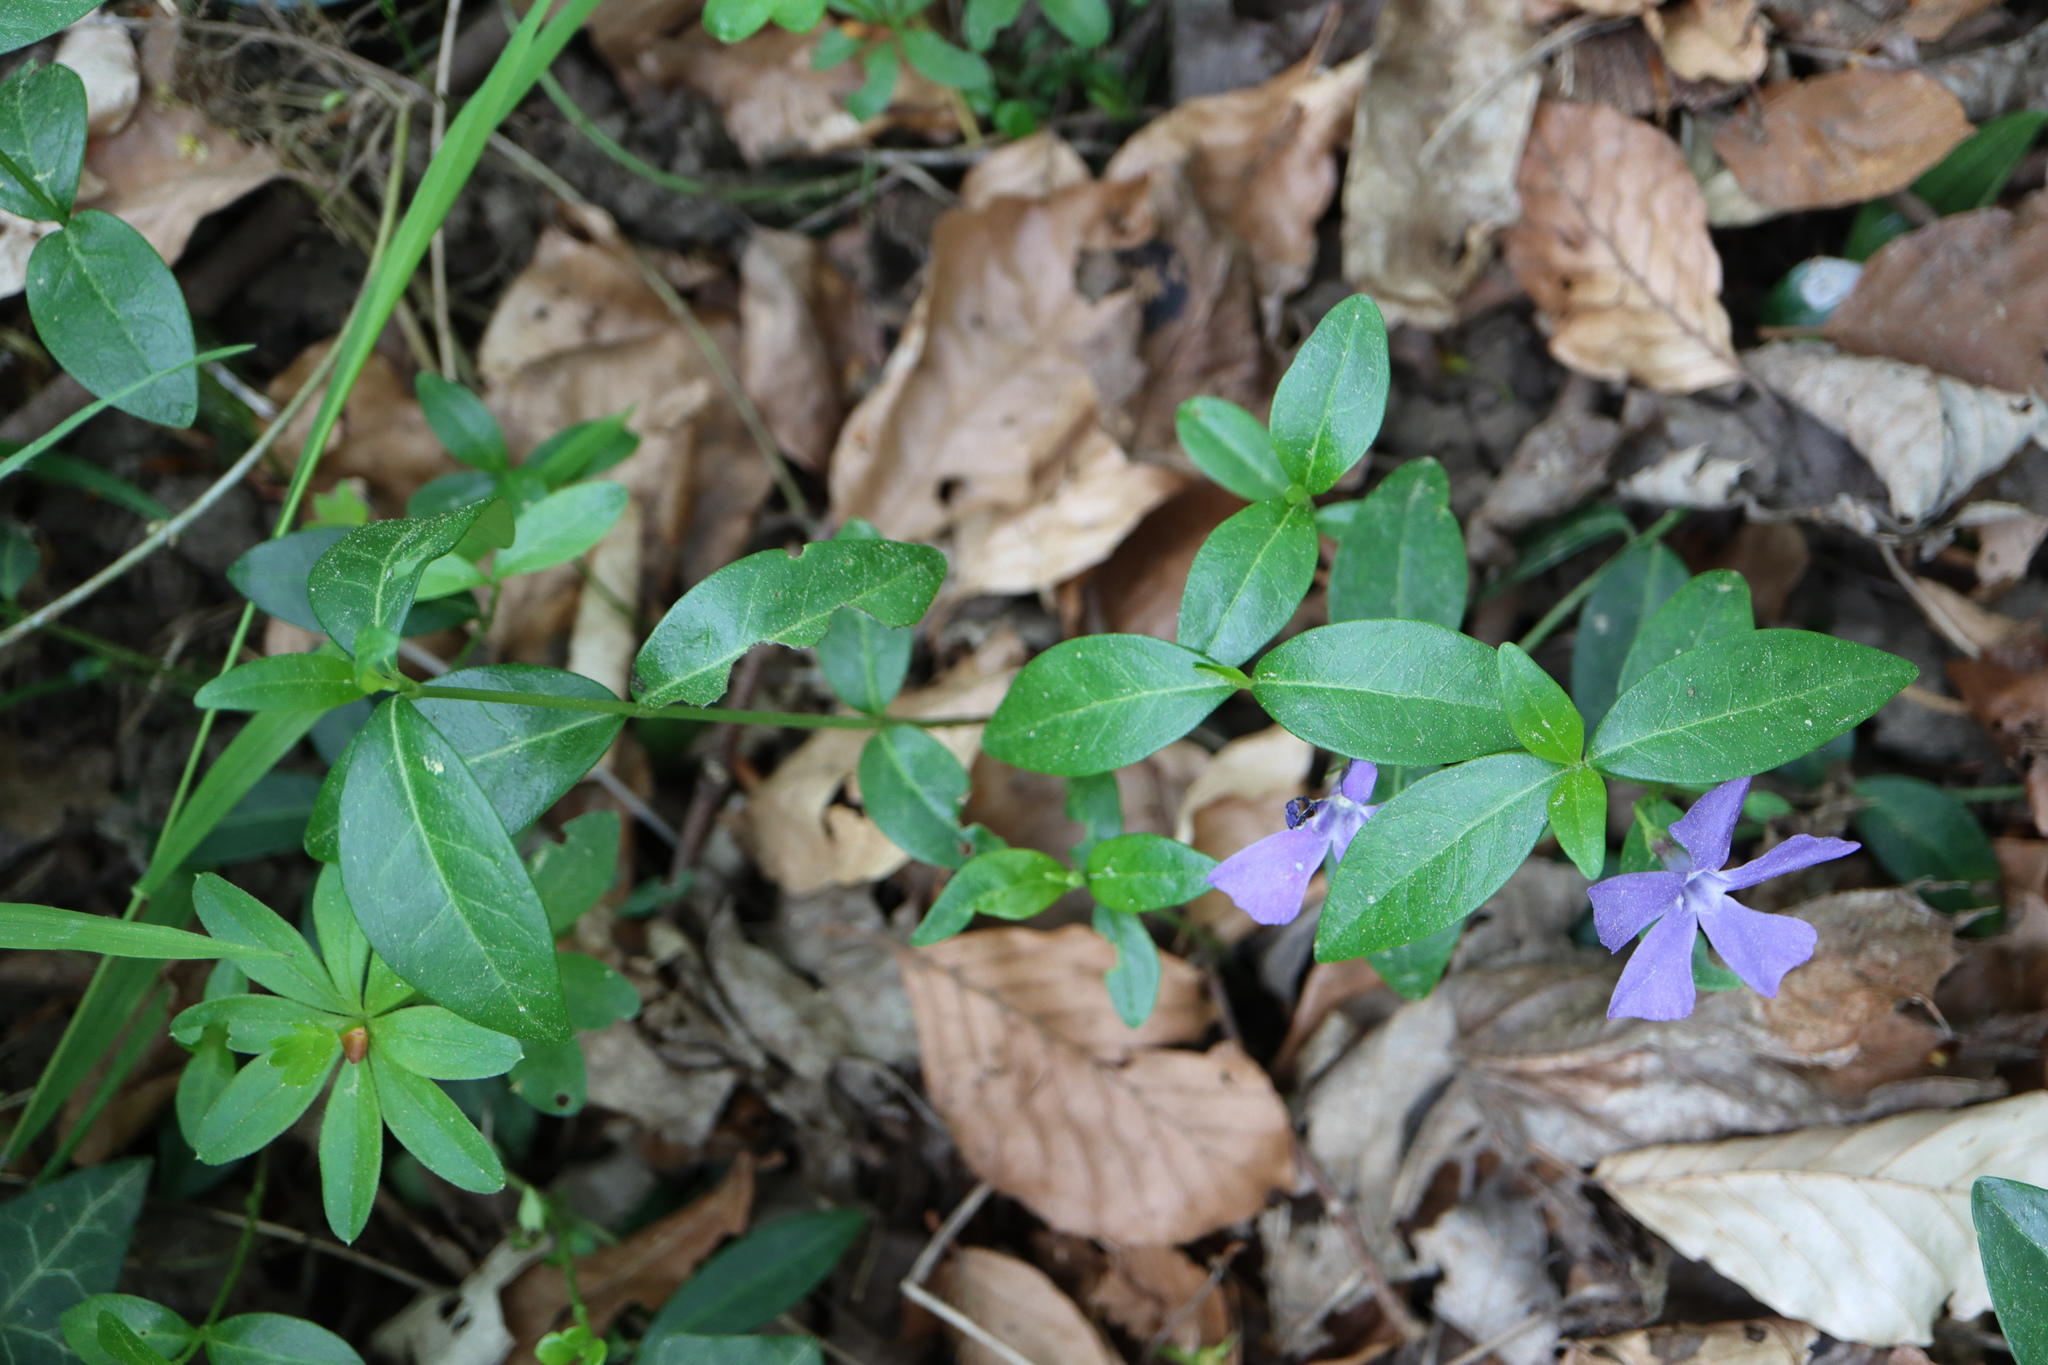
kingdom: Plantae
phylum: Tracheophyta
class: Magnoliopsida
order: Gentianales
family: Apocynaceae
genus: Vinca
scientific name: Vinca minor
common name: Lesser periwinkle
